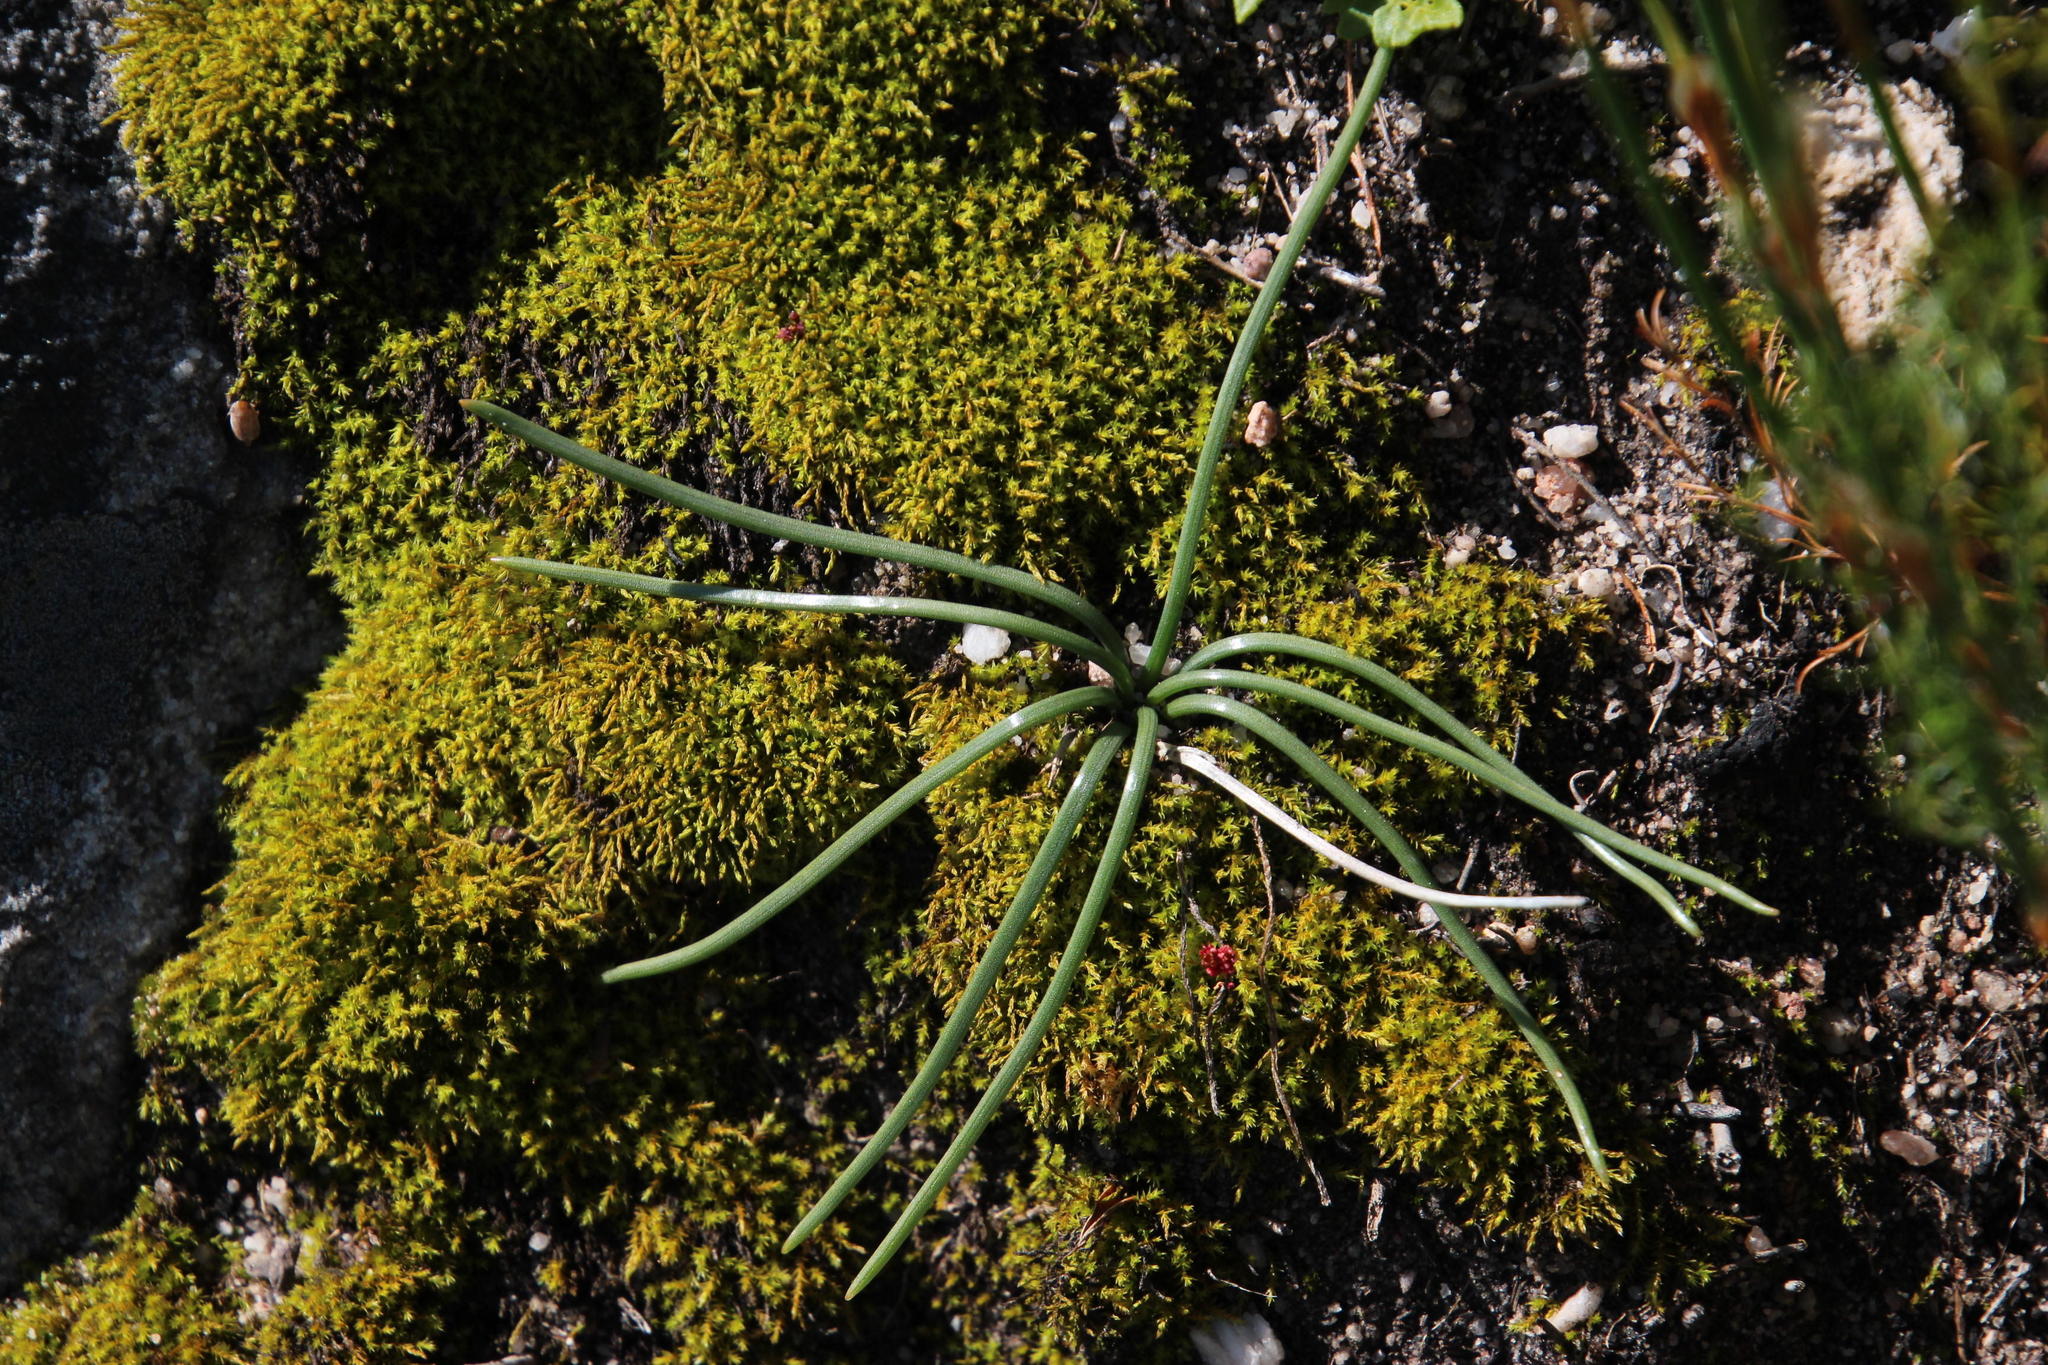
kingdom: Plantae
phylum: Tracheophyta
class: Liliopsida
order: Asparagales
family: Asparagaceae
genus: Drimia
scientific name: Drimia convallarioides
